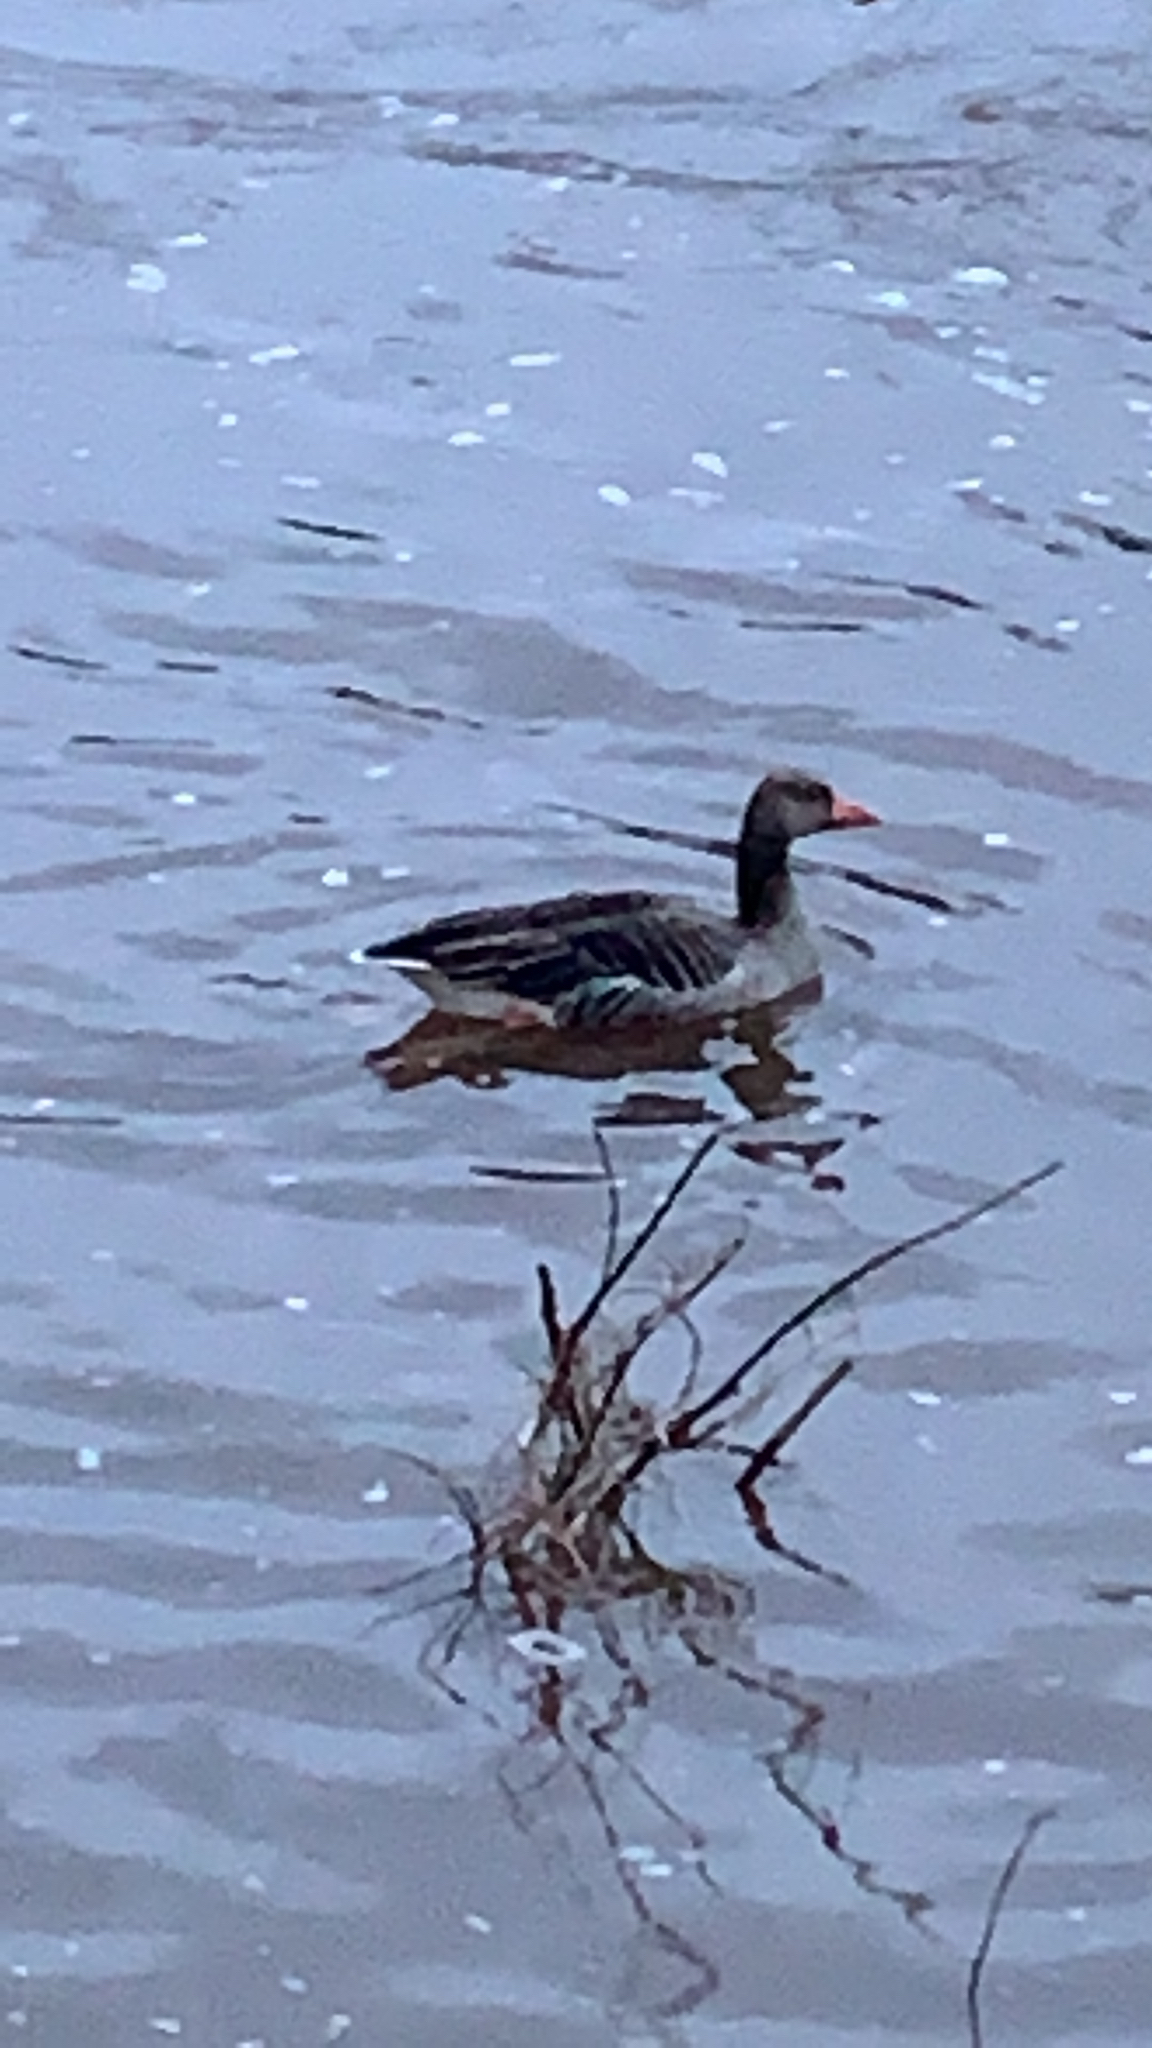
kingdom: Animalia
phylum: Chordata
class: Aves
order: Anseriformes
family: Anatidae
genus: Anser
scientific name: Anser anser
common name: Greylag goose
